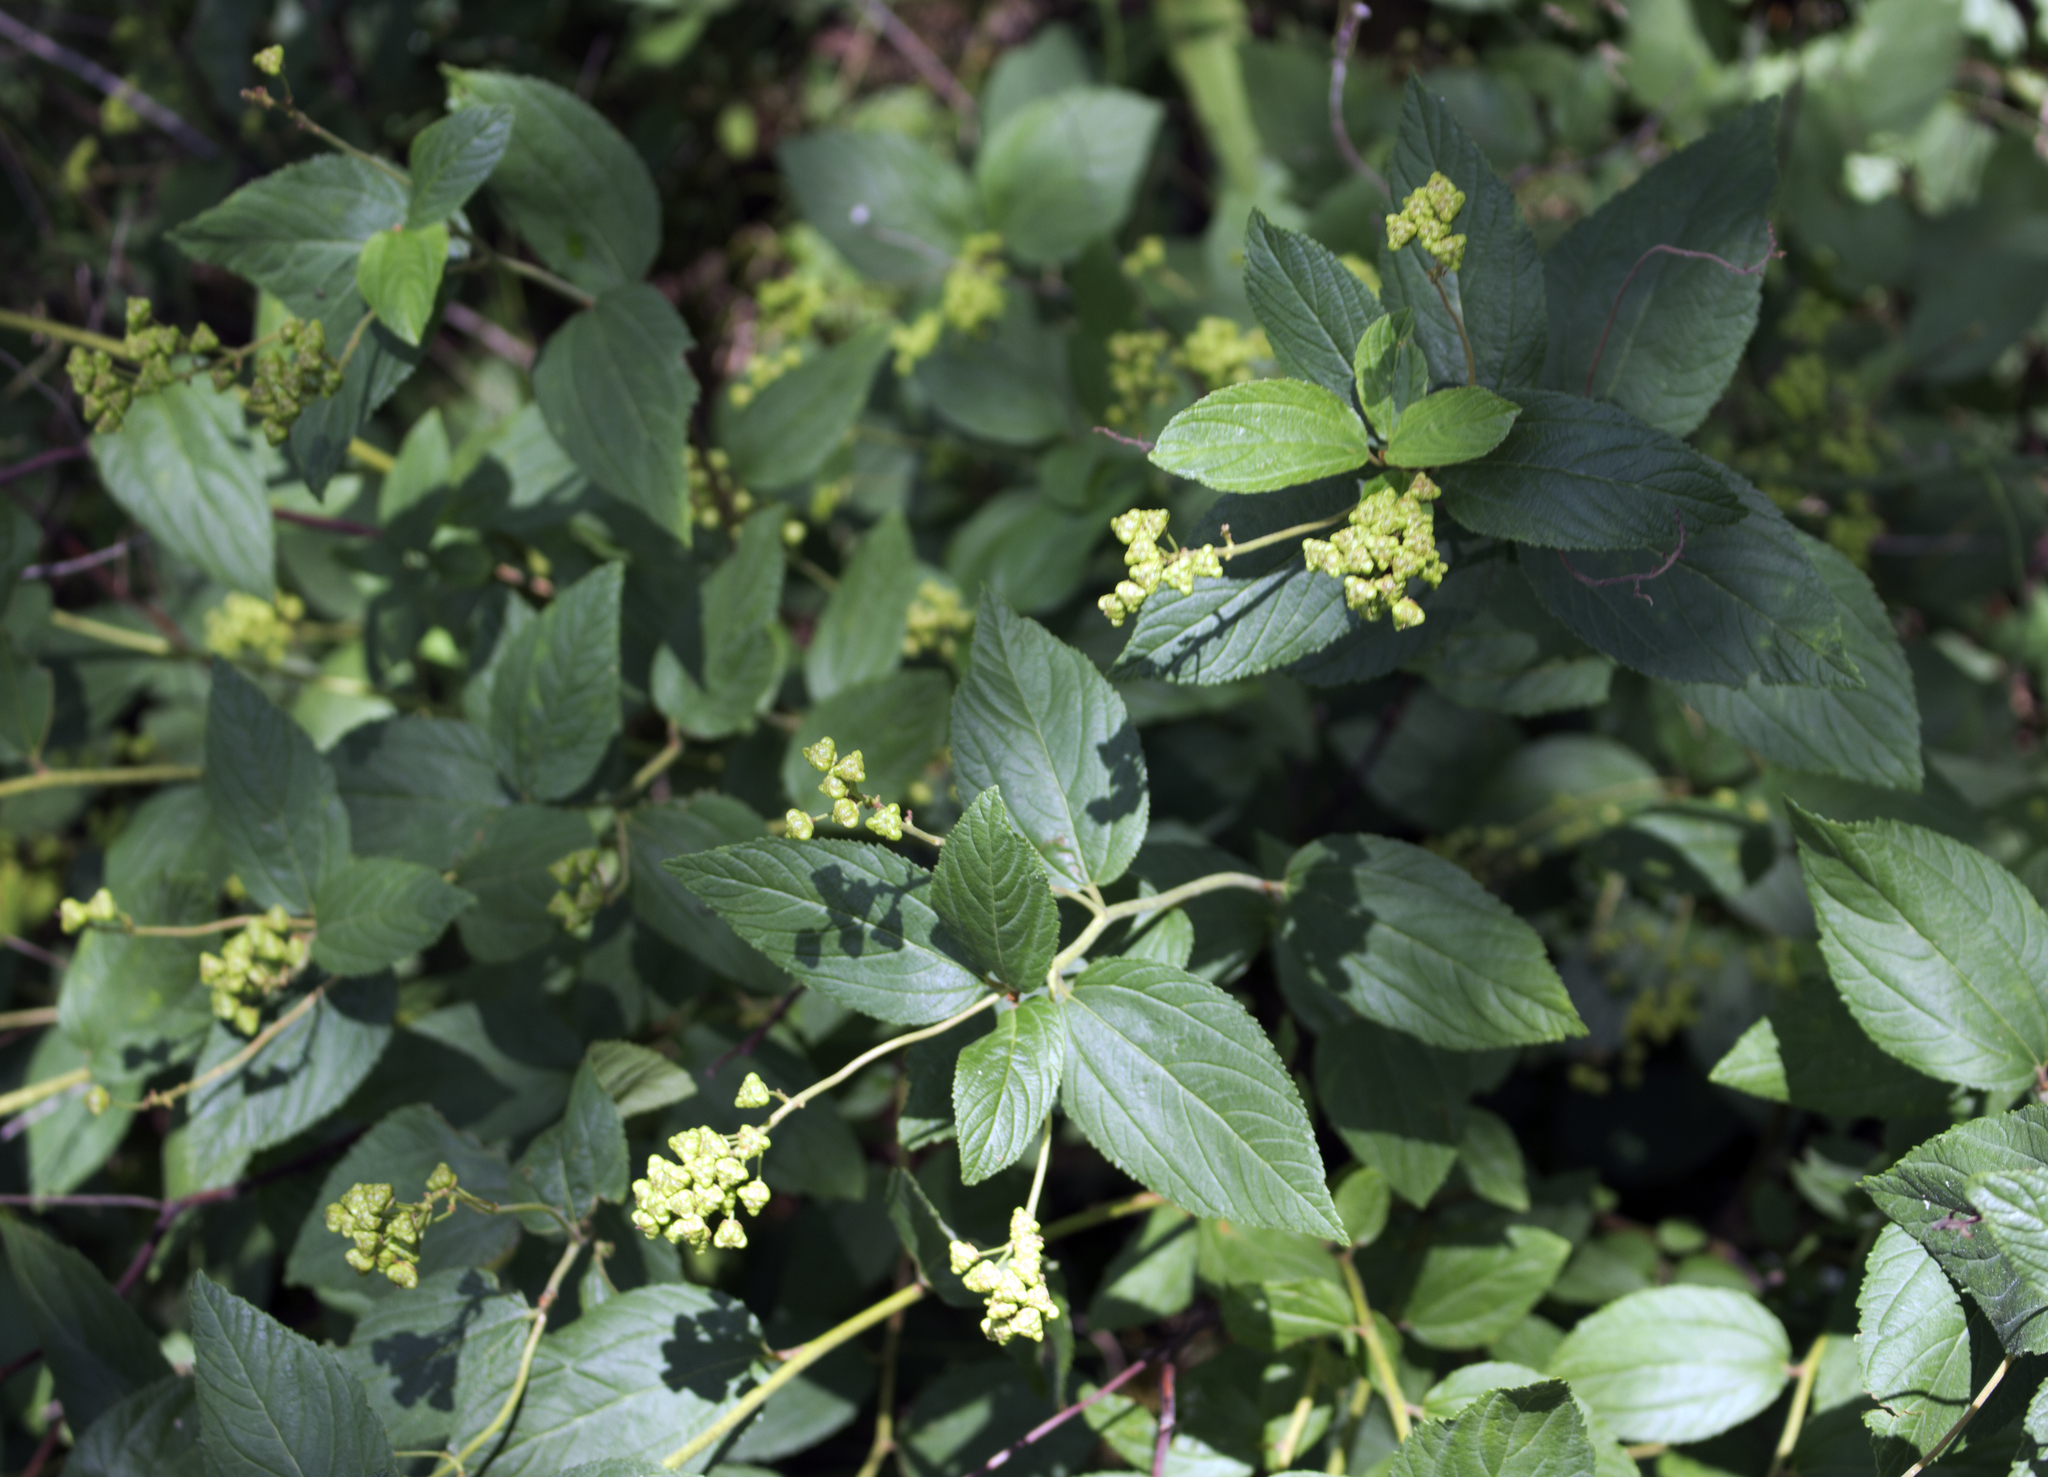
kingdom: Plantae
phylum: Tracheophyta
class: Magnoliopsida
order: Rosales
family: Rhamnaceae
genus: Ceanothus
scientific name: Ceanothus americanus
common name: Redroot
